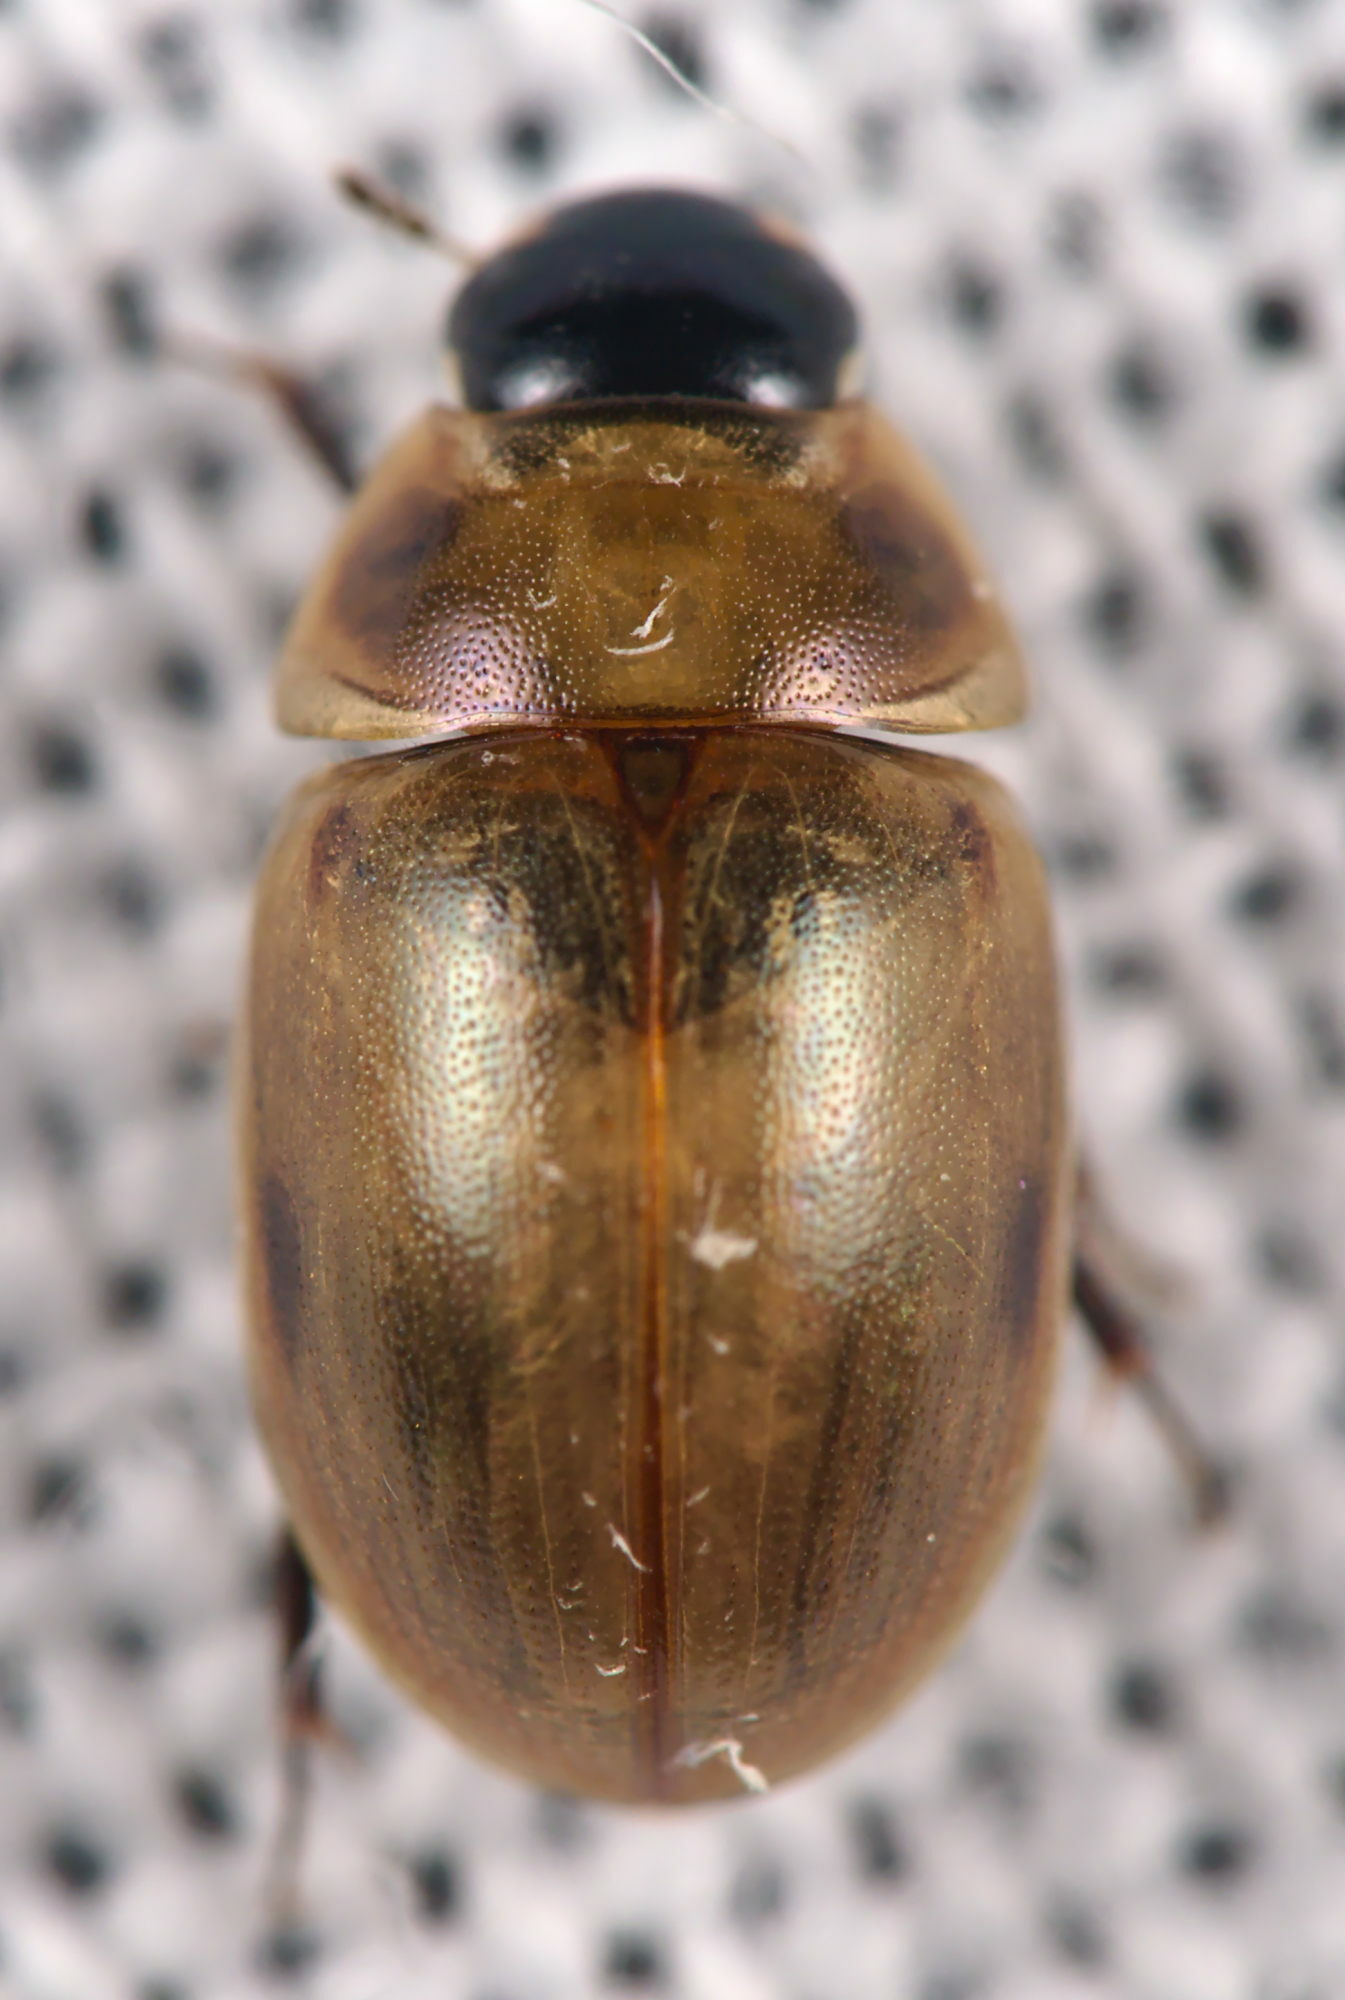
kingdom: Animalia
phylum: Arthropoda
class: Insecta
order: Coleoptera
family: Hydrophilidae
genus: Enochrus
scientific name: Enochrus melanocephalus
